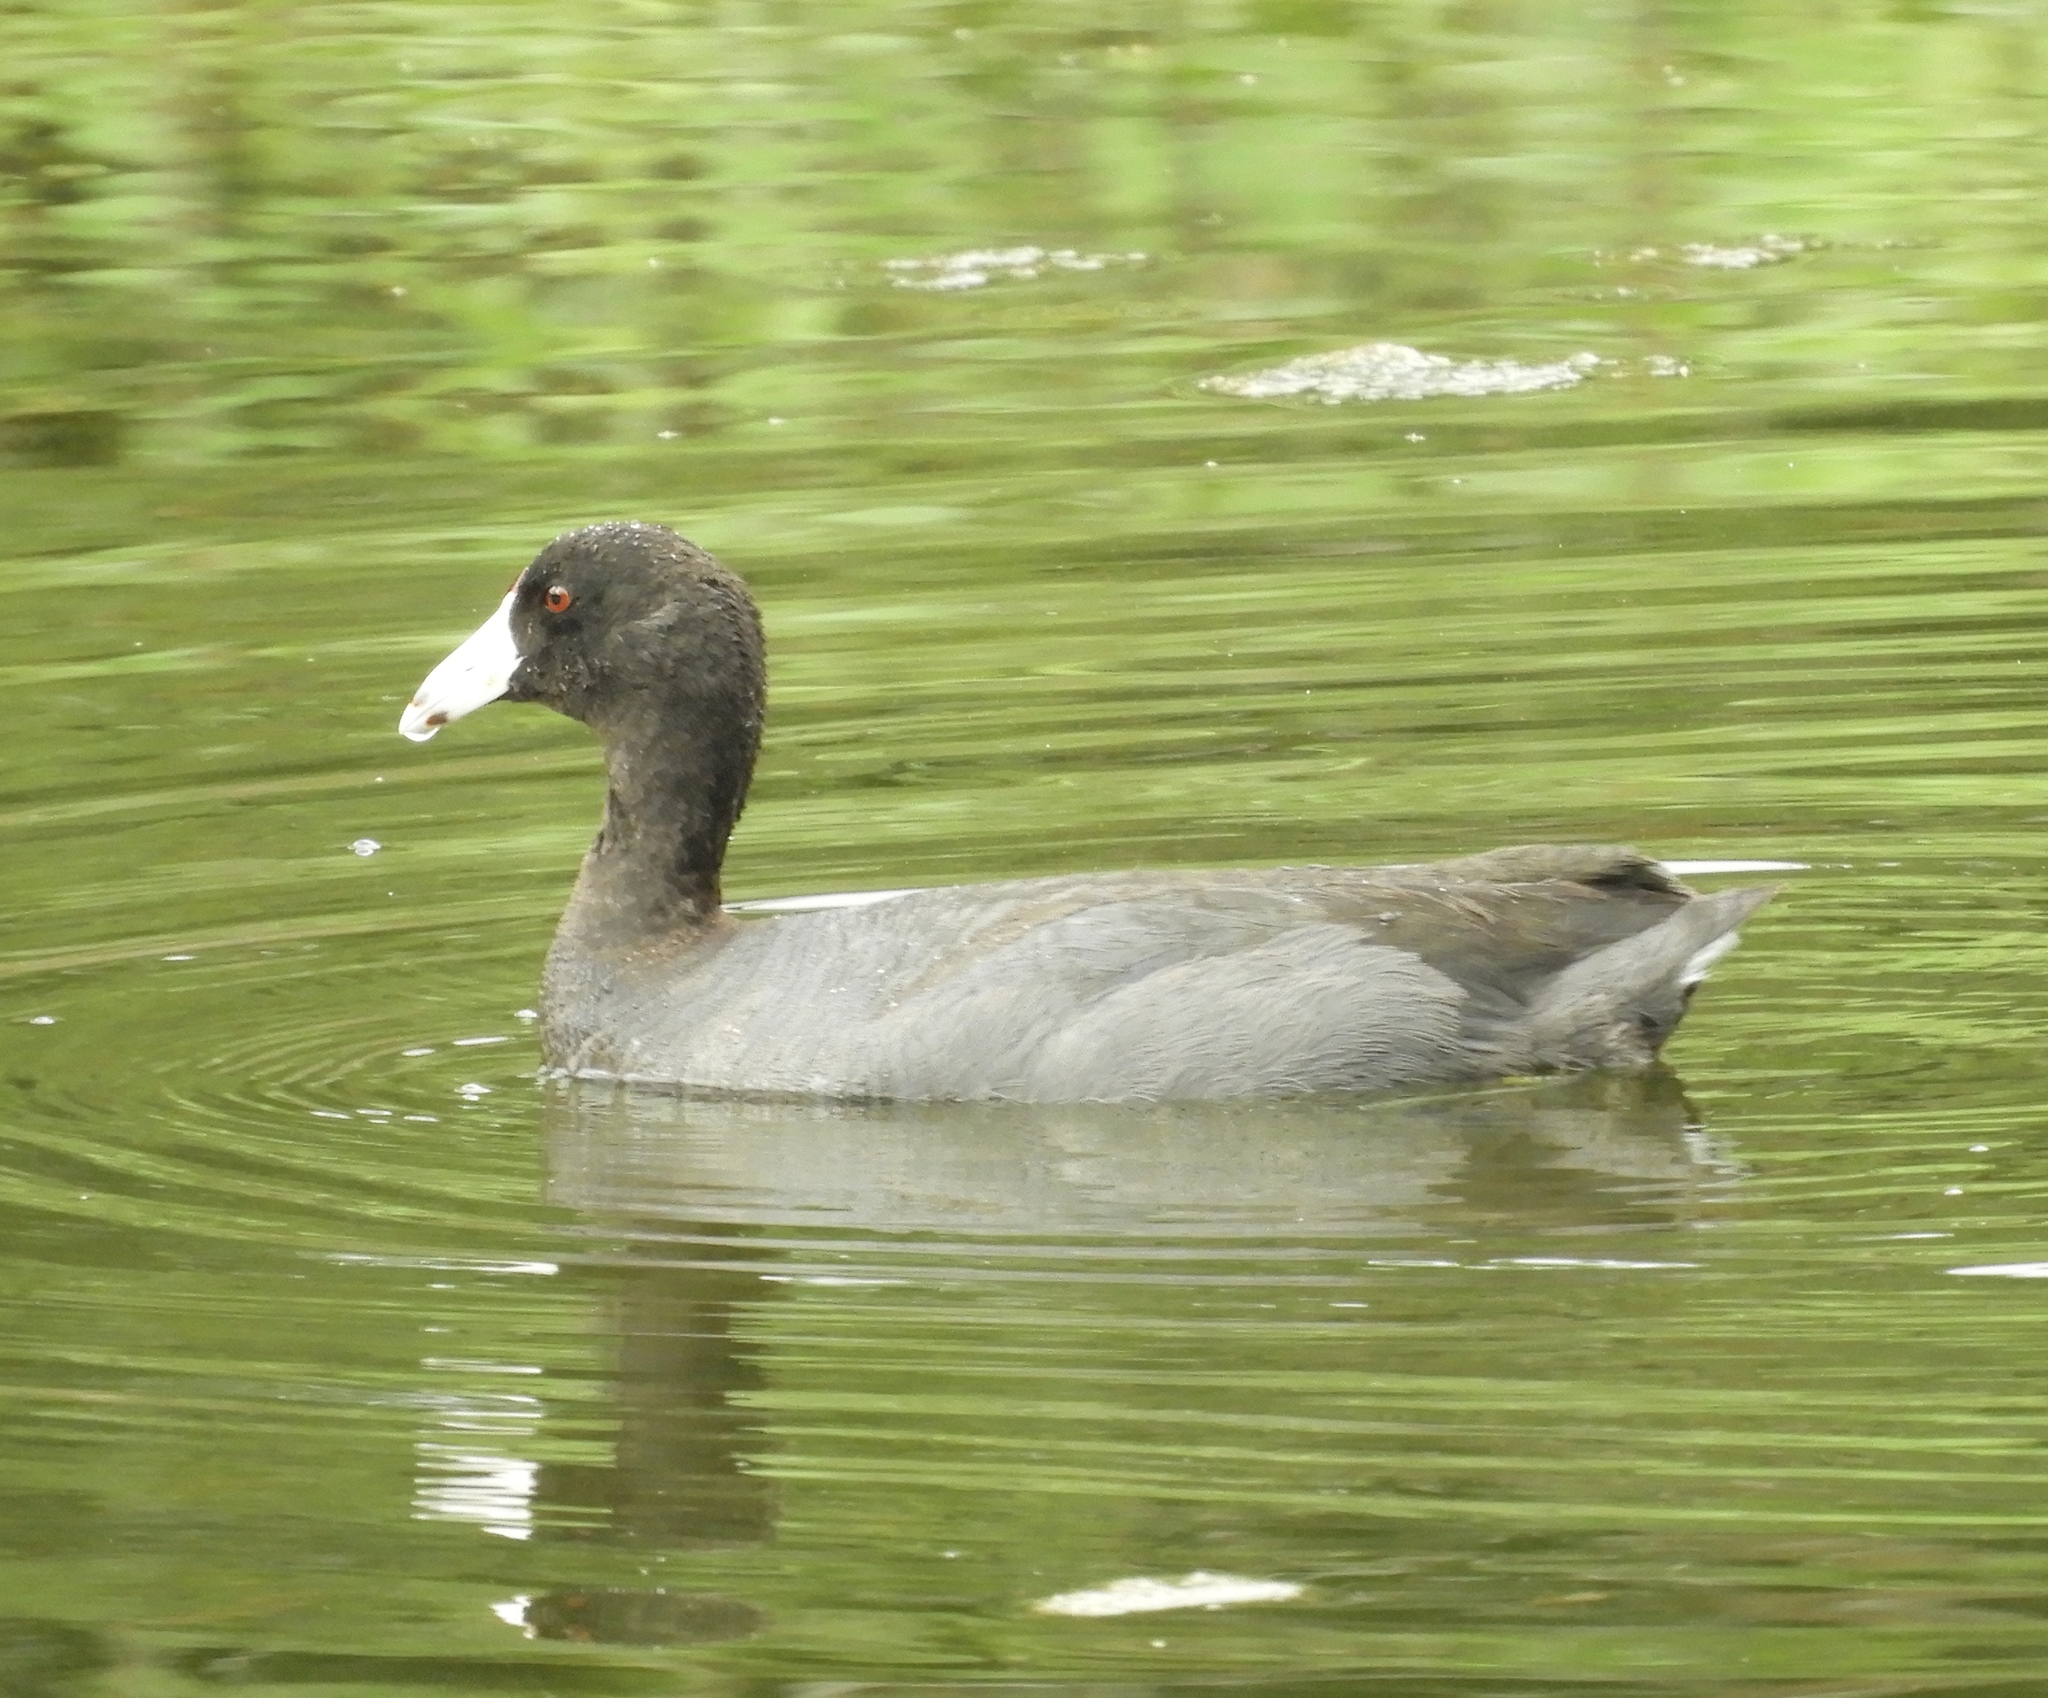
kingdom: Animalia
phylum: Chordata
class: Aves
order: Gruiformes
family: Rallidae
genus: Fulica
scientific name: Fulica americana
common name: American coot
